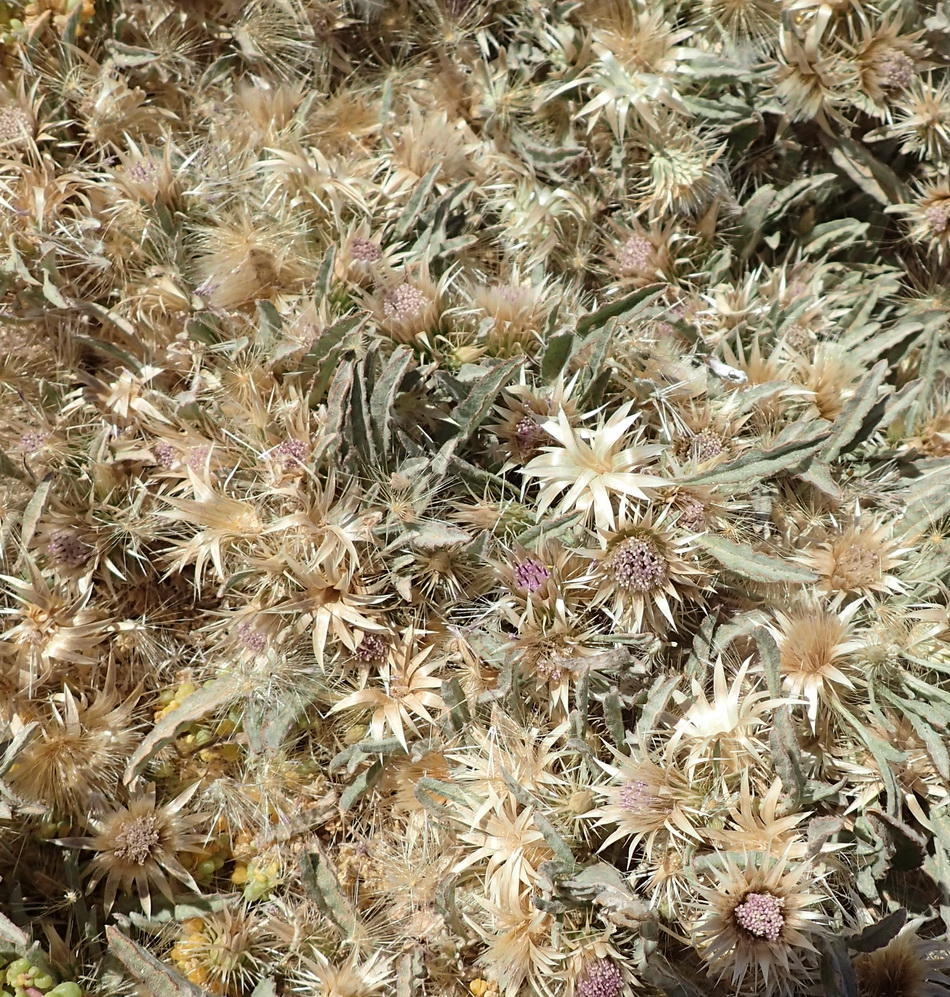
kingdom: Plantae
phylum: Tracheophyta
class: Magnoliopsida
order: Asterales
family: Asteraceae
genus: Dicoma
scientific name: Dicoma capensis
